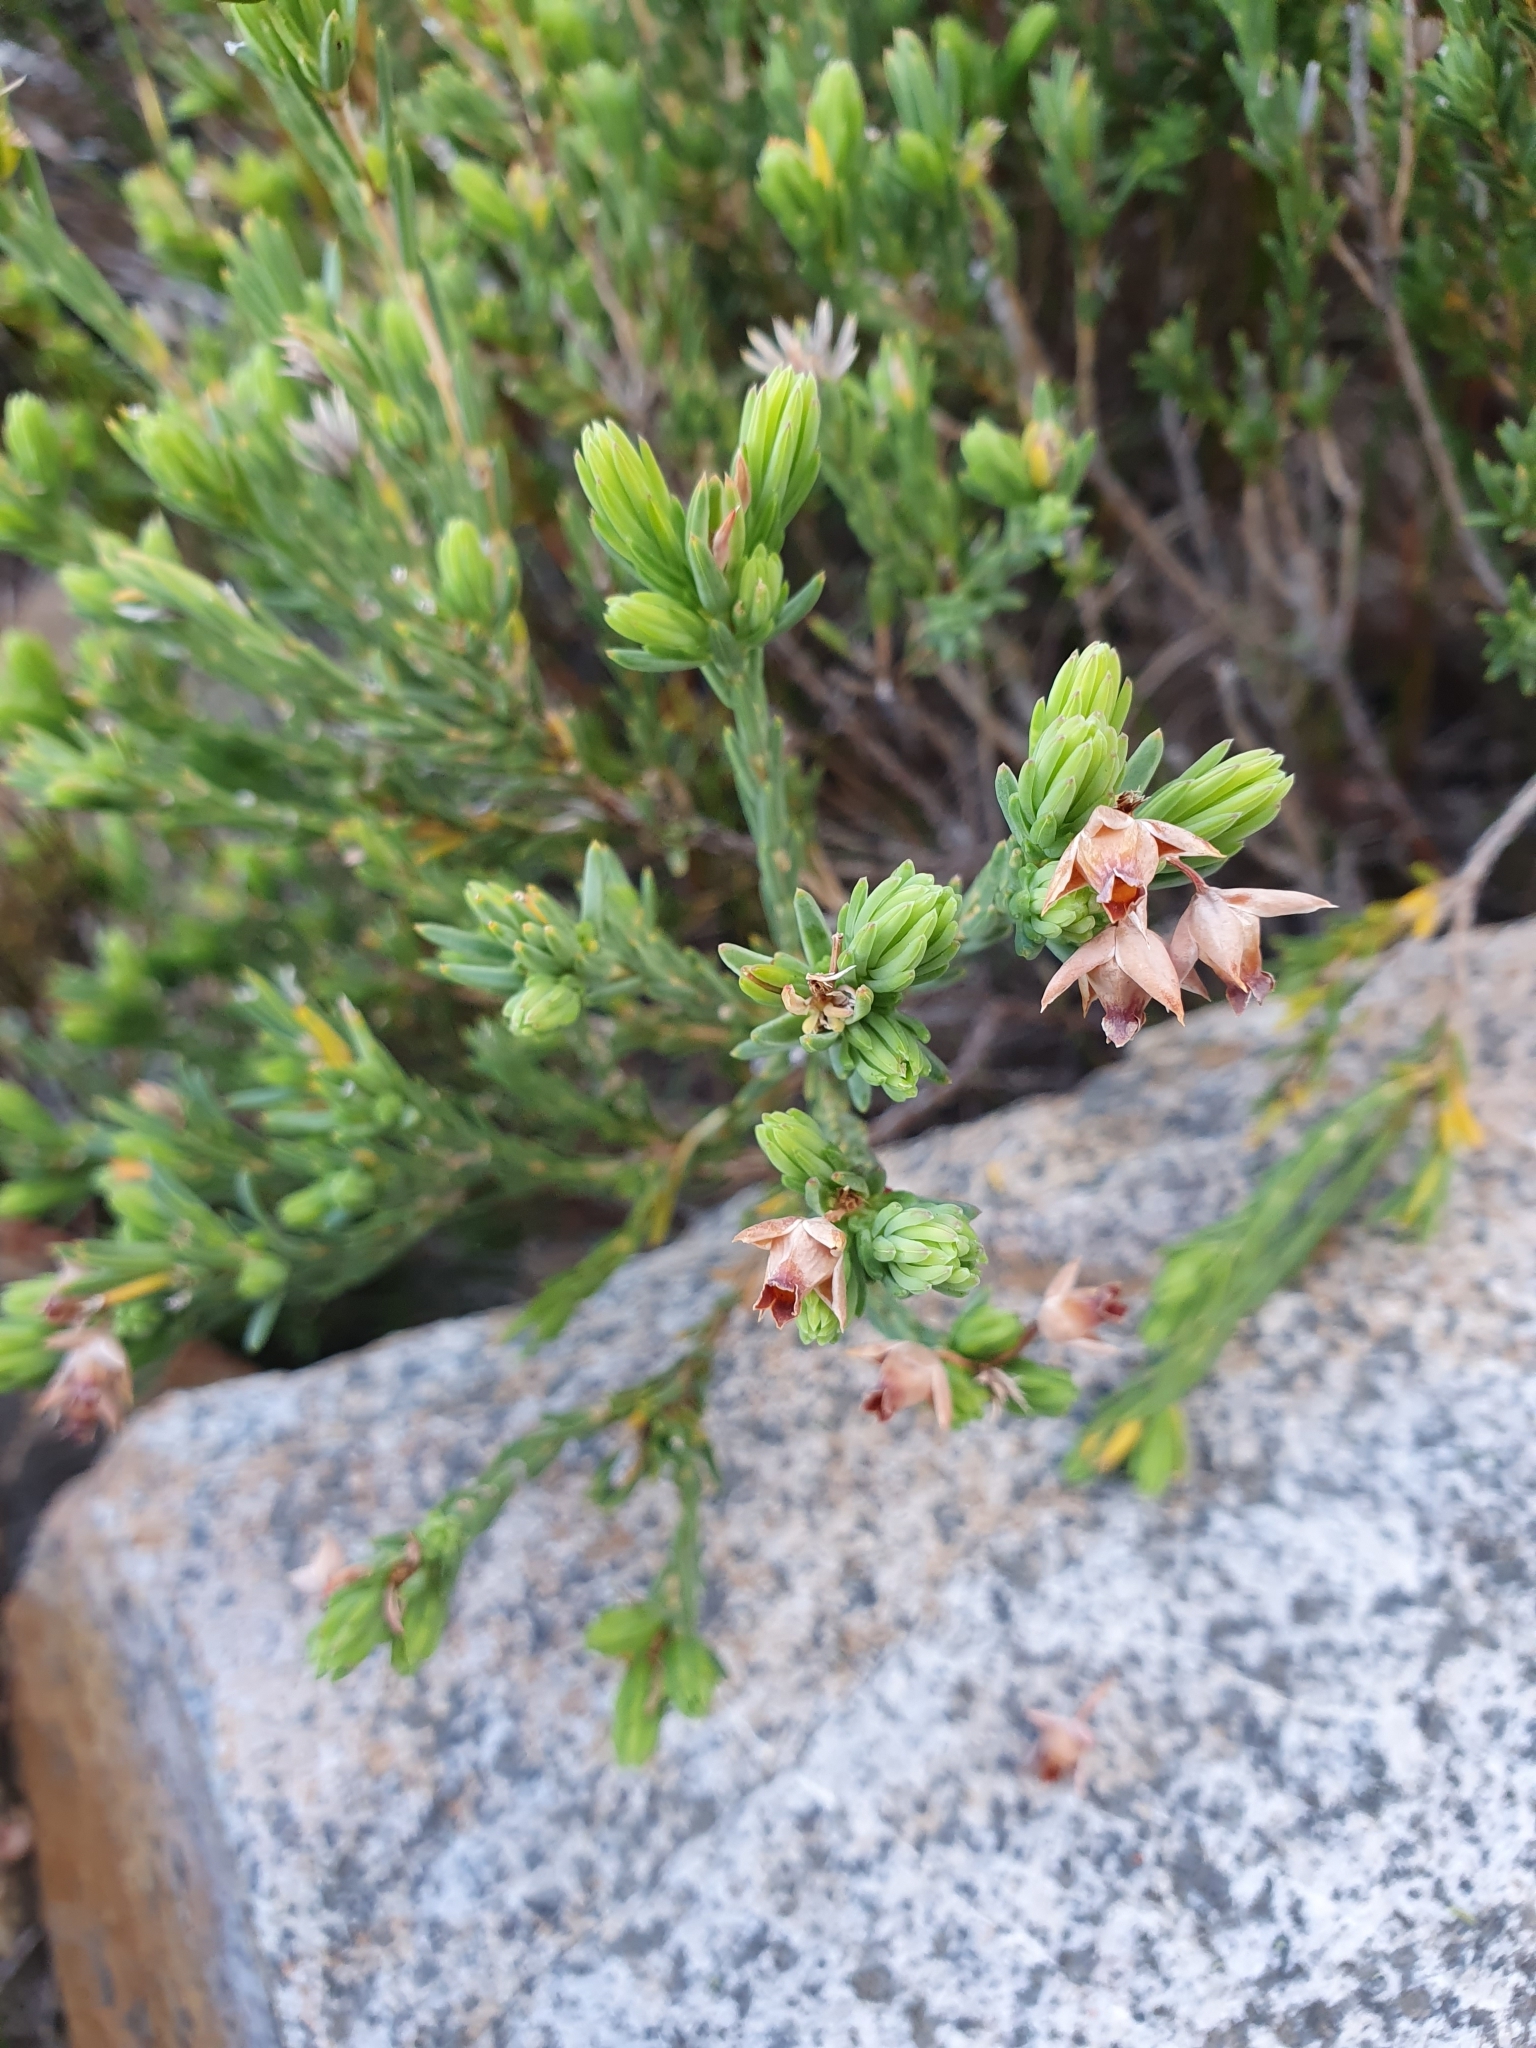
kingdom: Plantae
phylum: Tracheophyta
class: Magnoliopsida
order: Ericales
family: Ericaceae
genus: Erica
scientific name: Erica taxifolia
